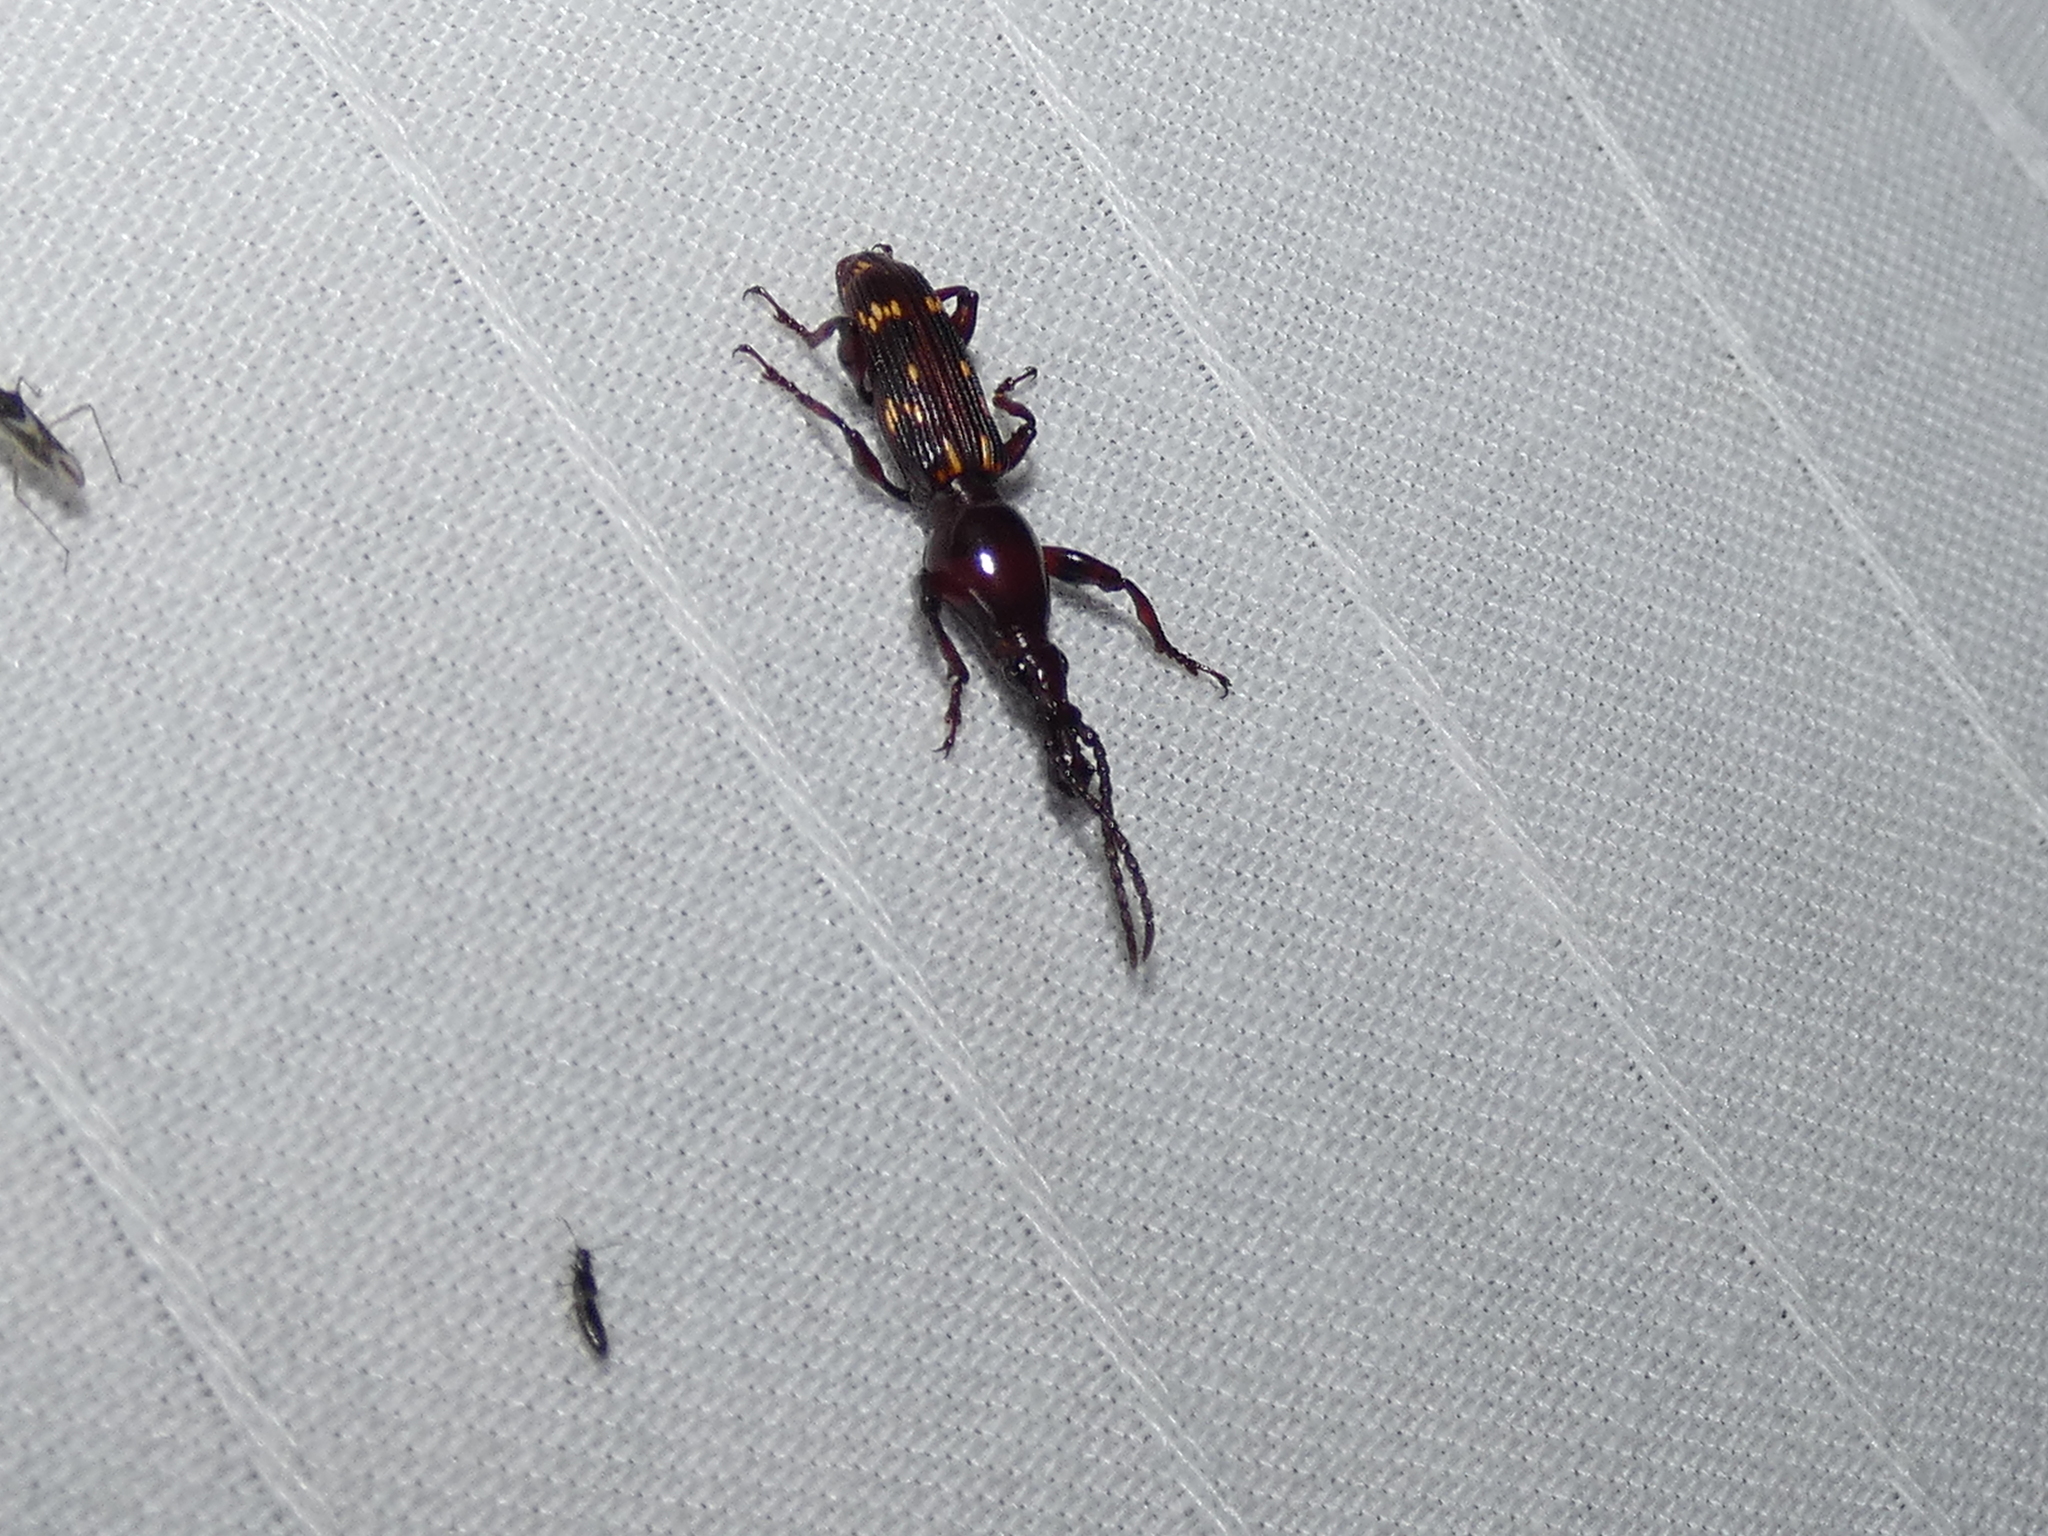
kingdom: Animalia
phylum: Arthropoda
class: Insecta
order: Coleoptera
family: Brentidae
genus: Arrenodes
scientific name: Arrenodes minutus
